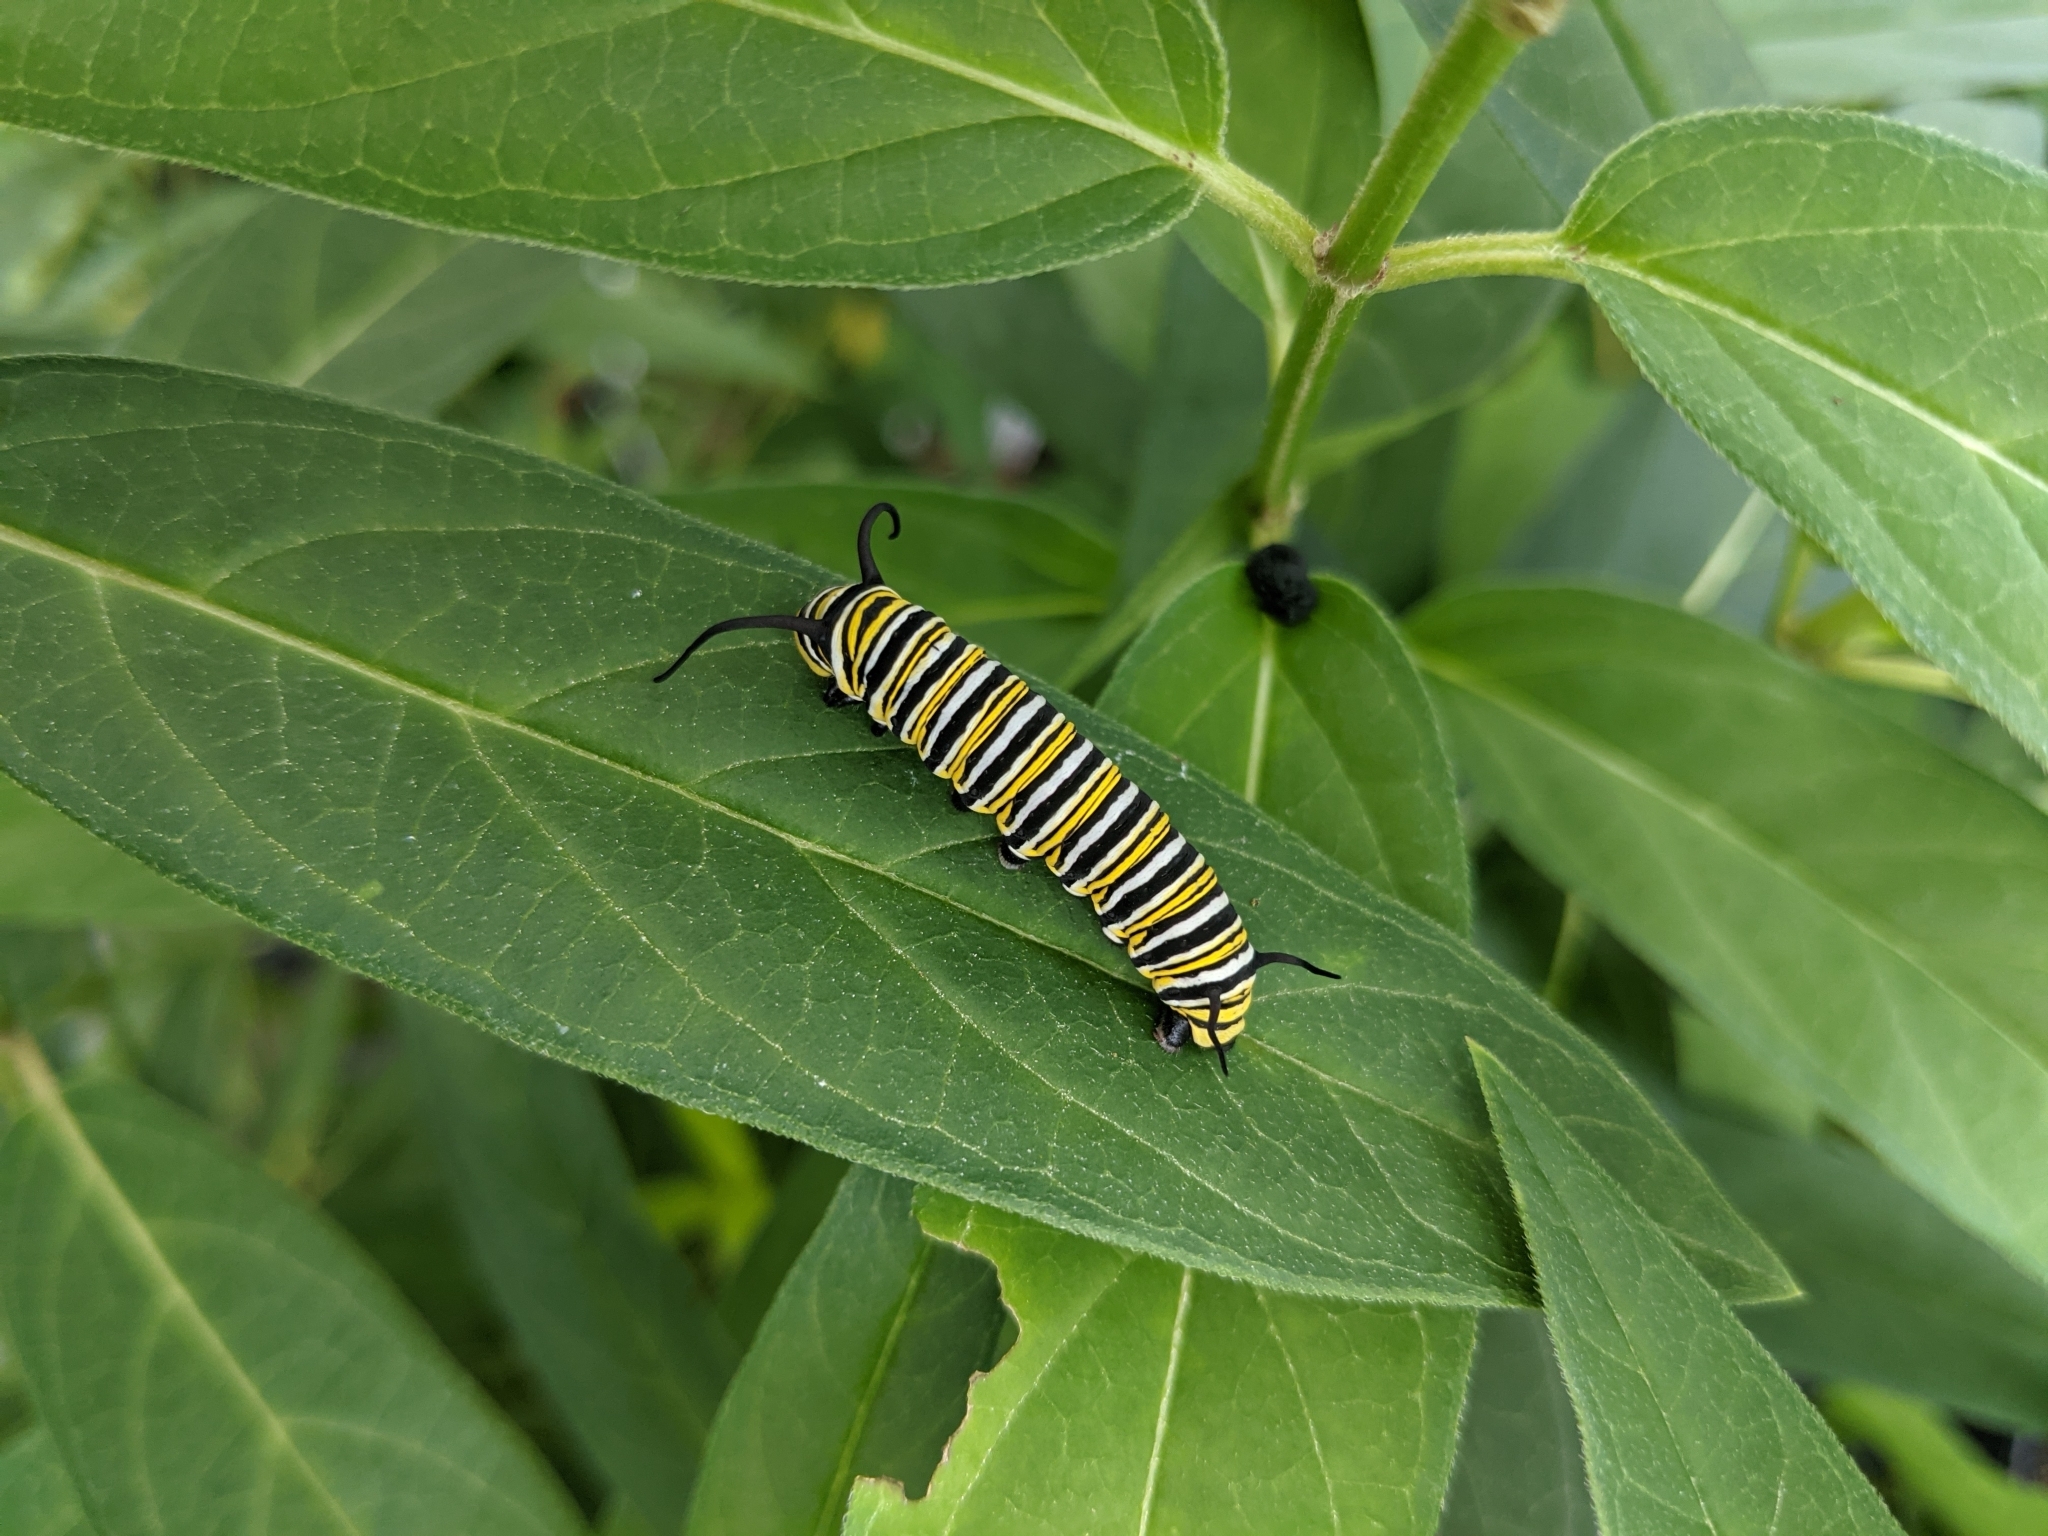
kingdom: Animalia
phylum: Arthropoda
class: Insecta
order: Lepidoptera
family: Nymphalidae
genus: Danaus
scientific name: Danaus plexippus
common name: Monarch
